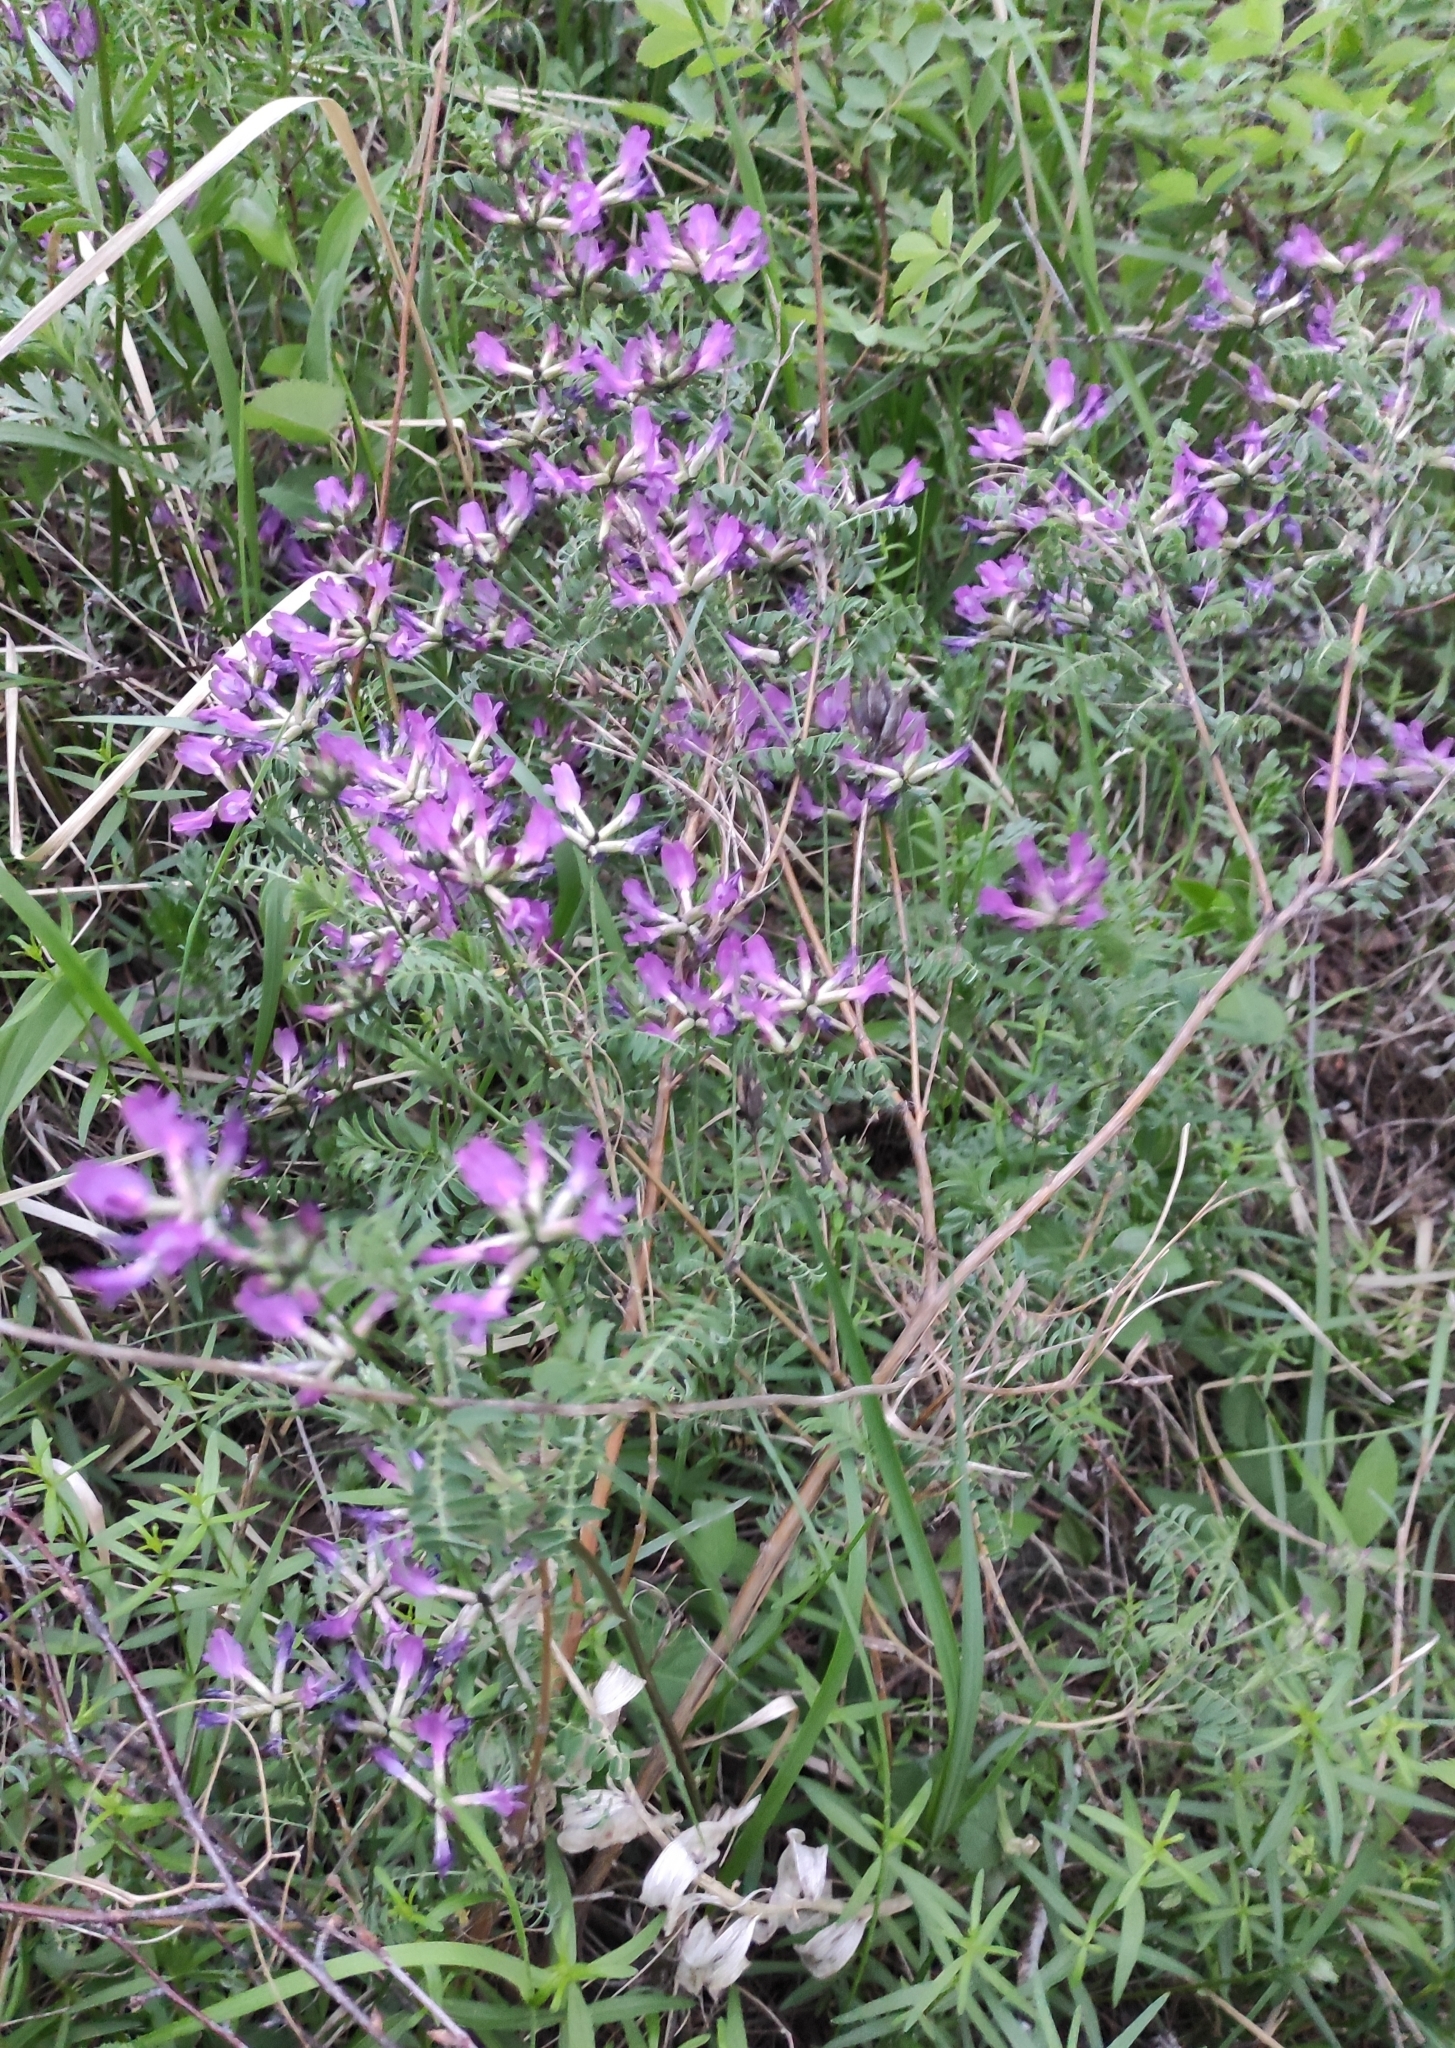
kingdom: Plantae
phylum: Tracheophyta
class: Magnoliopsida
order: Fabales
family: Fabaceae
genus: Astragalus
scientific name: Astragalus syriacus
